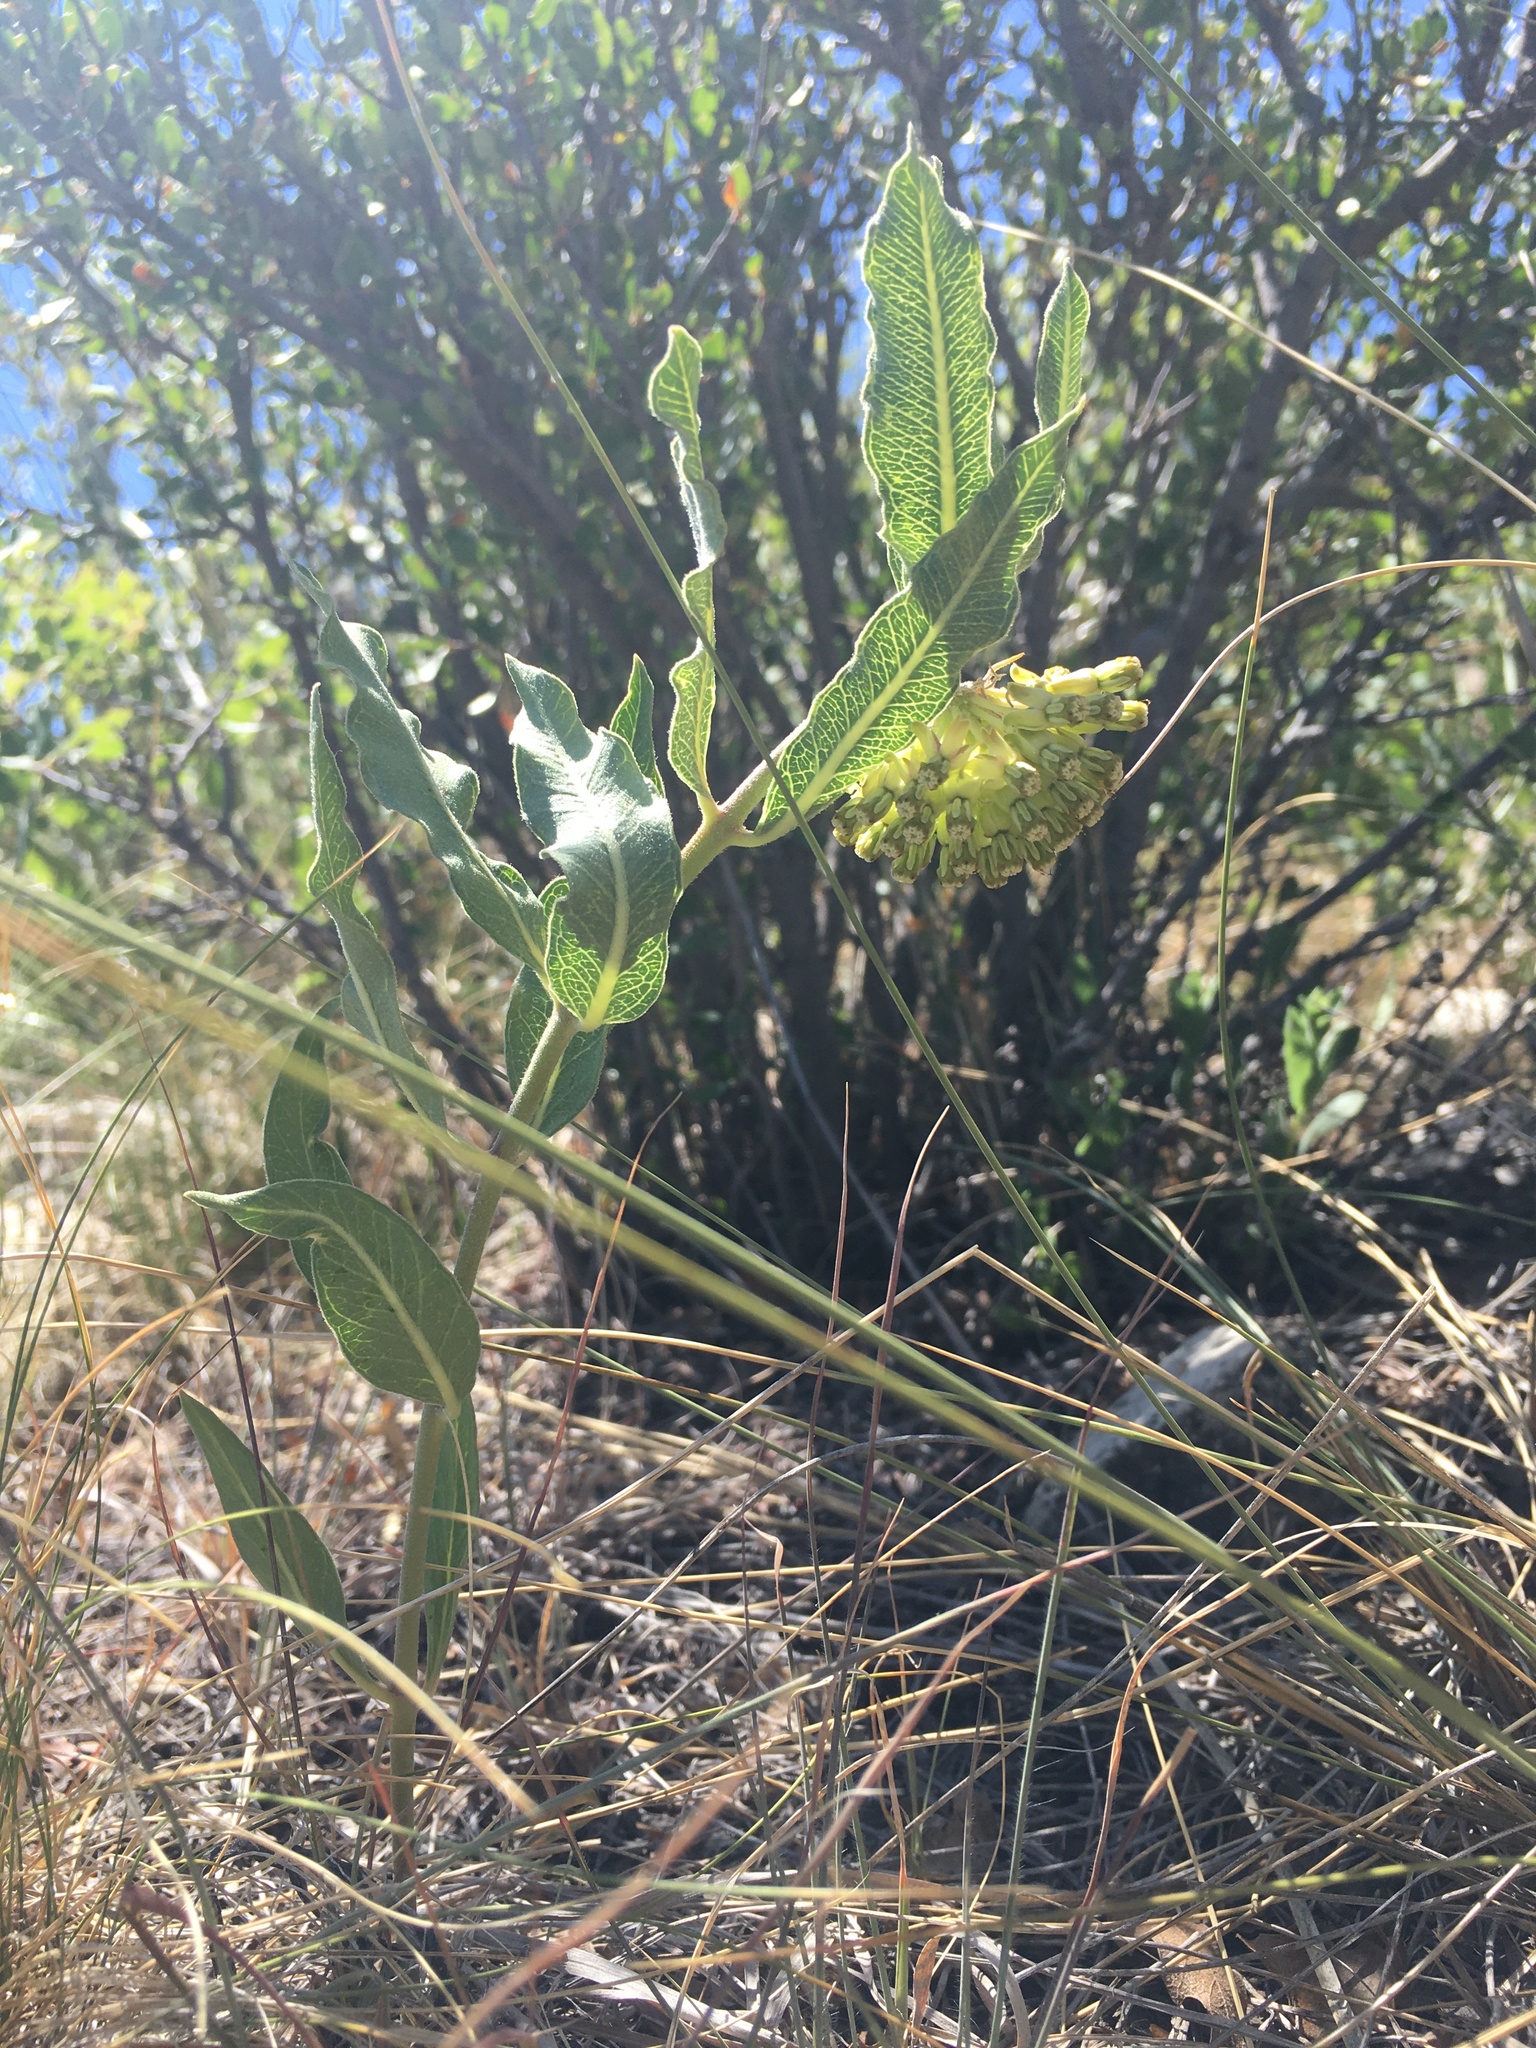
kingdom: Plantae
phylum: Tracheophyta
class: Magnoliopsida
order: Gentianales
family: Apocynaceae
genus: Asclepias
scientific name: Asclepias viridiflora
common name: Green comet milkweed
